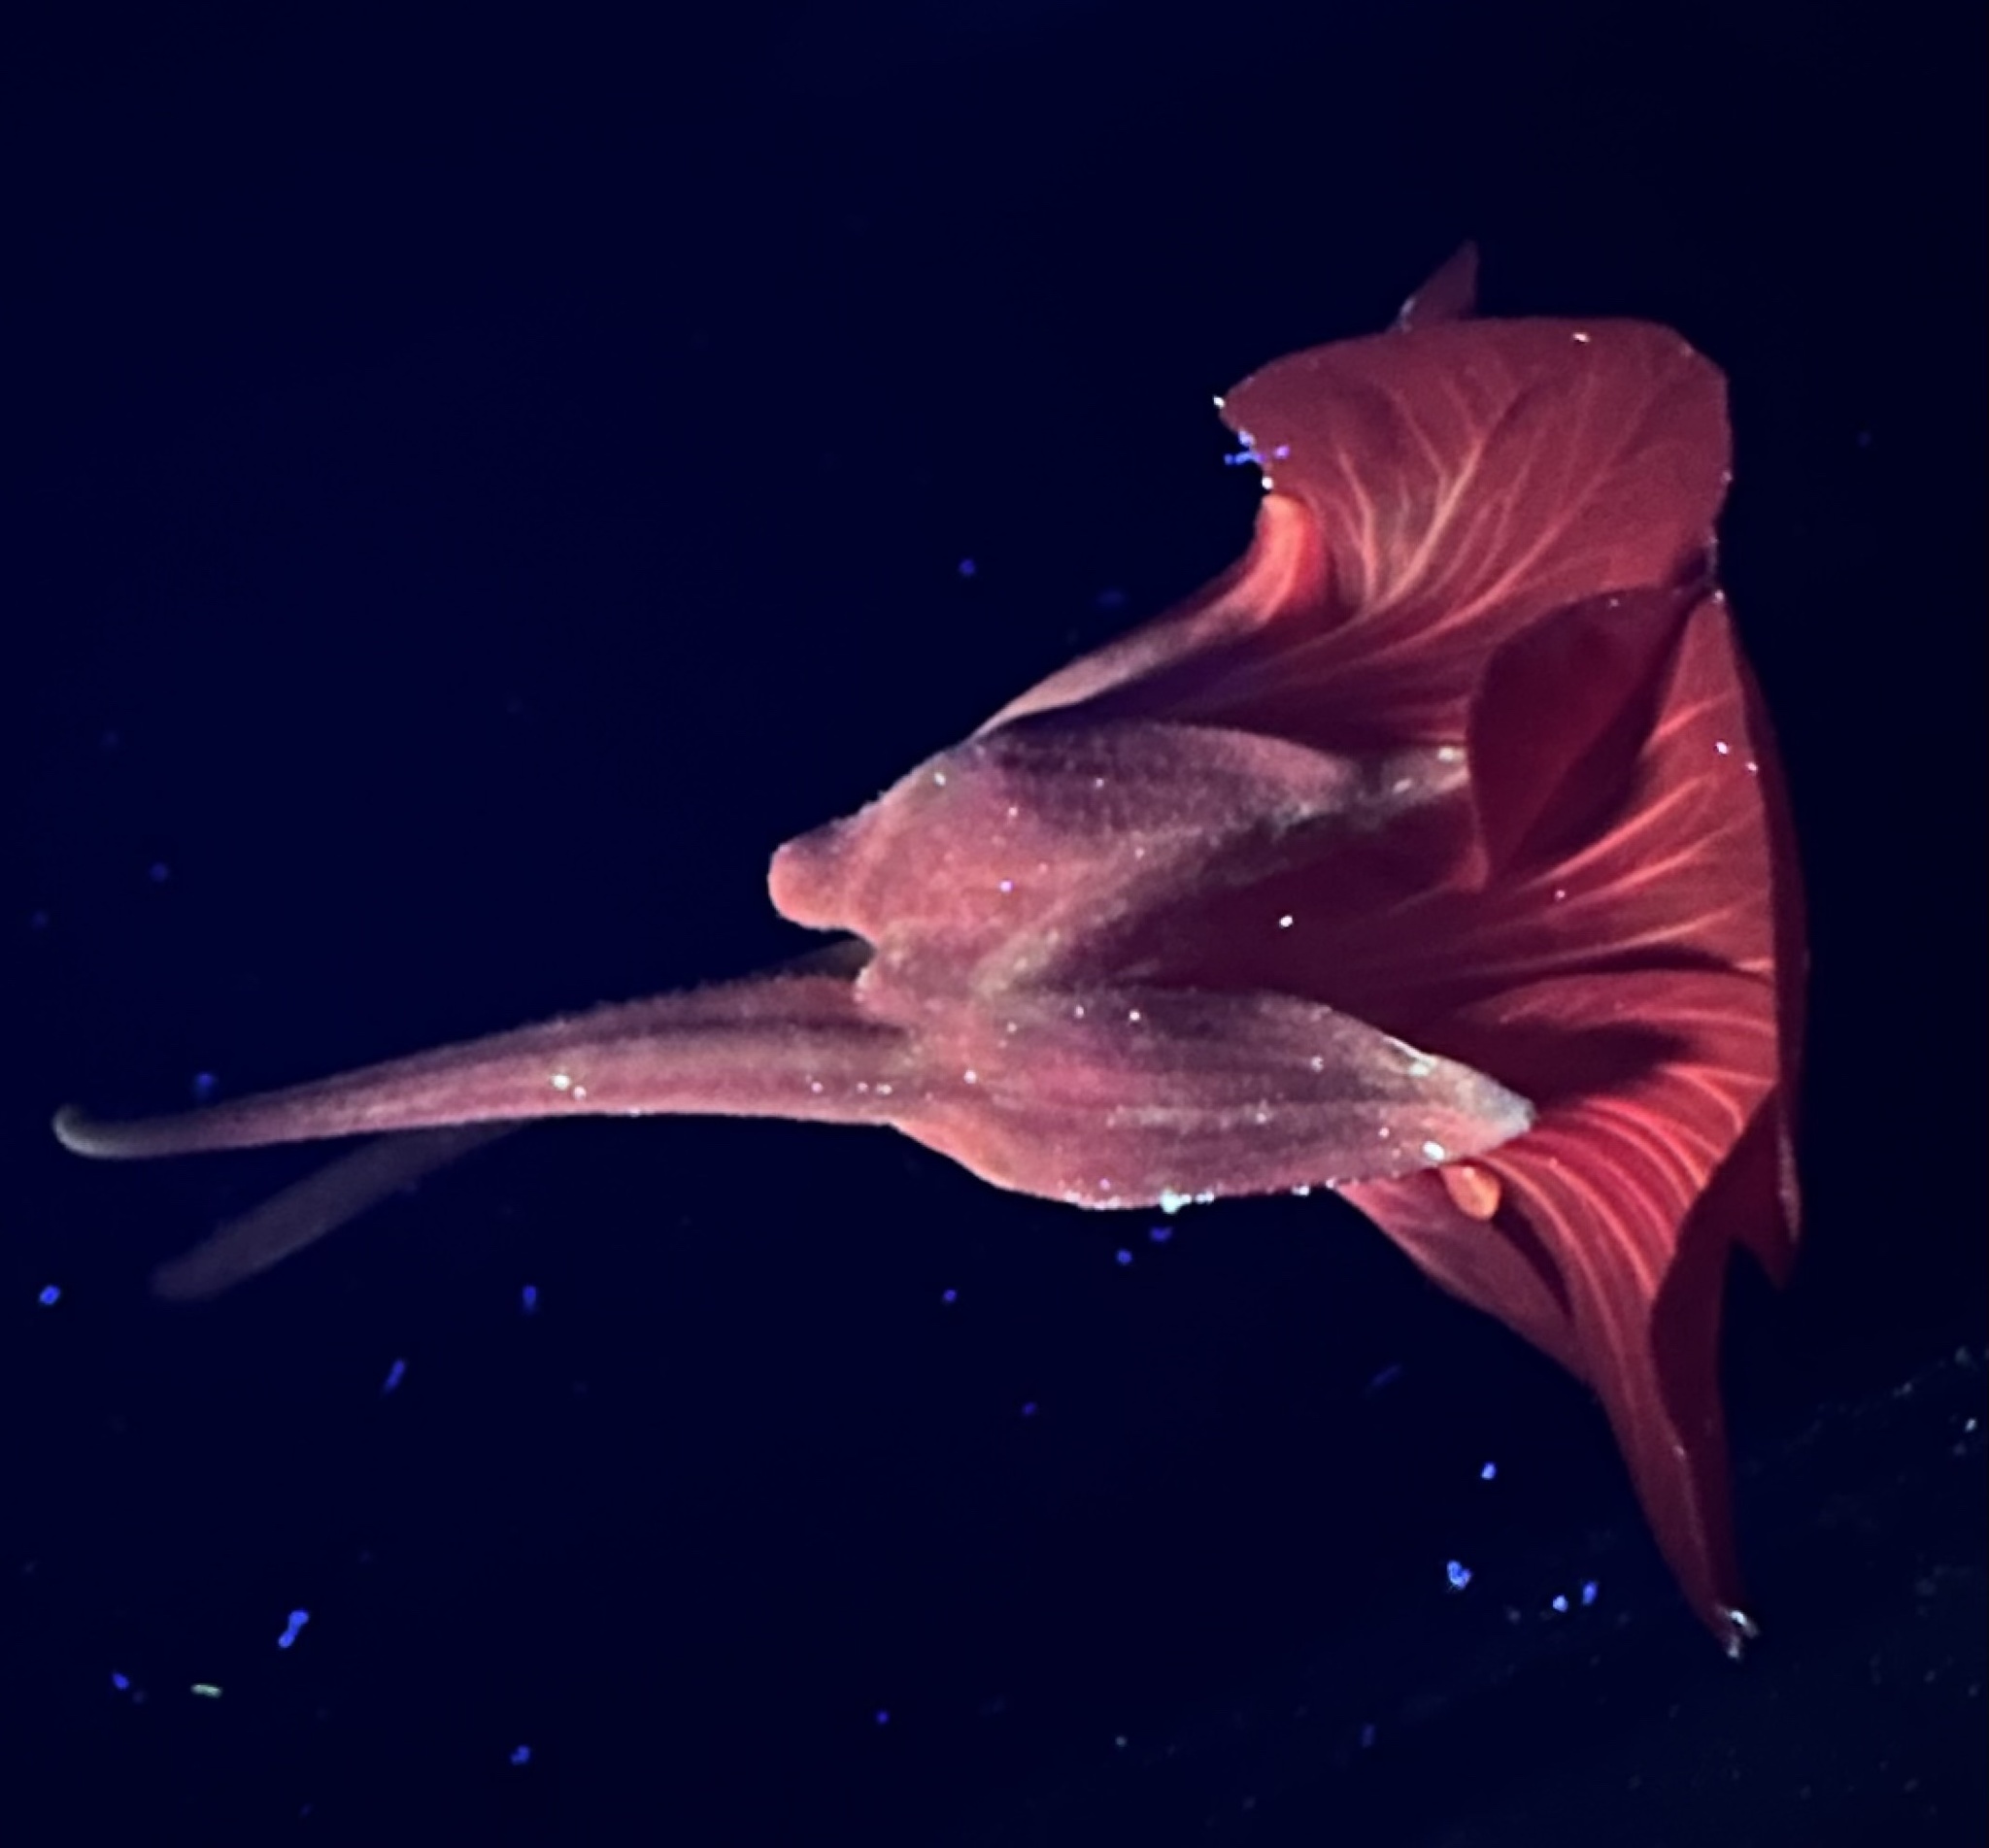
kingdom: Plantae
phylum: Tracheophyta
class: Magnoliopsida
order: Brassicales
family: Tropaeolaceae
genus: Tropaeolum
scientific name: Tropaeolum majus
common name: Nasturtium
